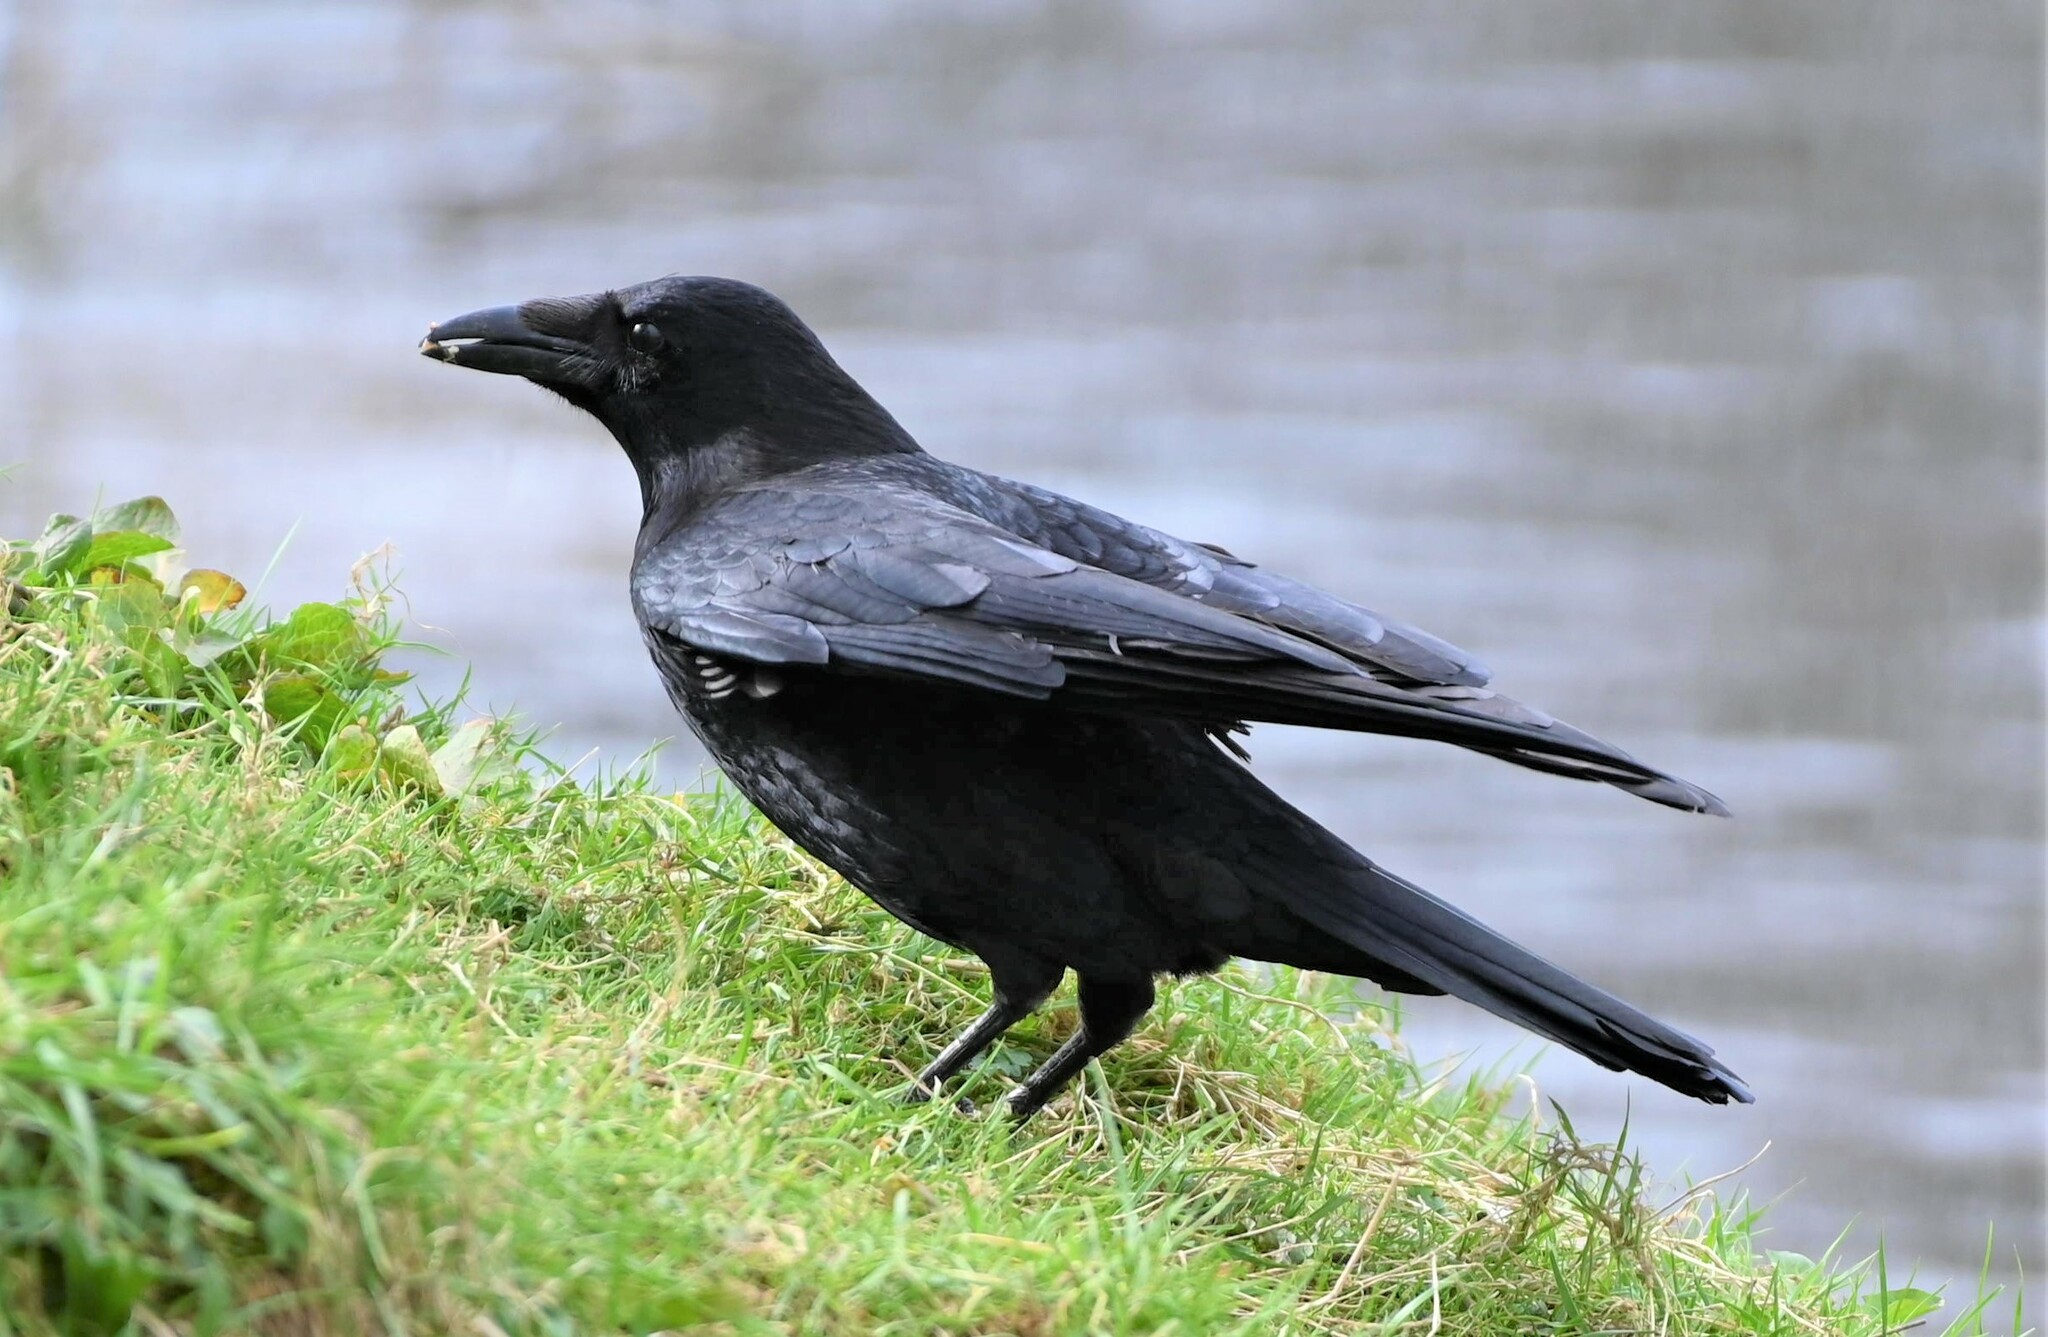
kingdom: Animalia
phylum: Chordata
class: Aves
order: Passeriformes
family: Corvidae
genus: Corvus
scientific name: Corvus corone
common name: Carrion crow
